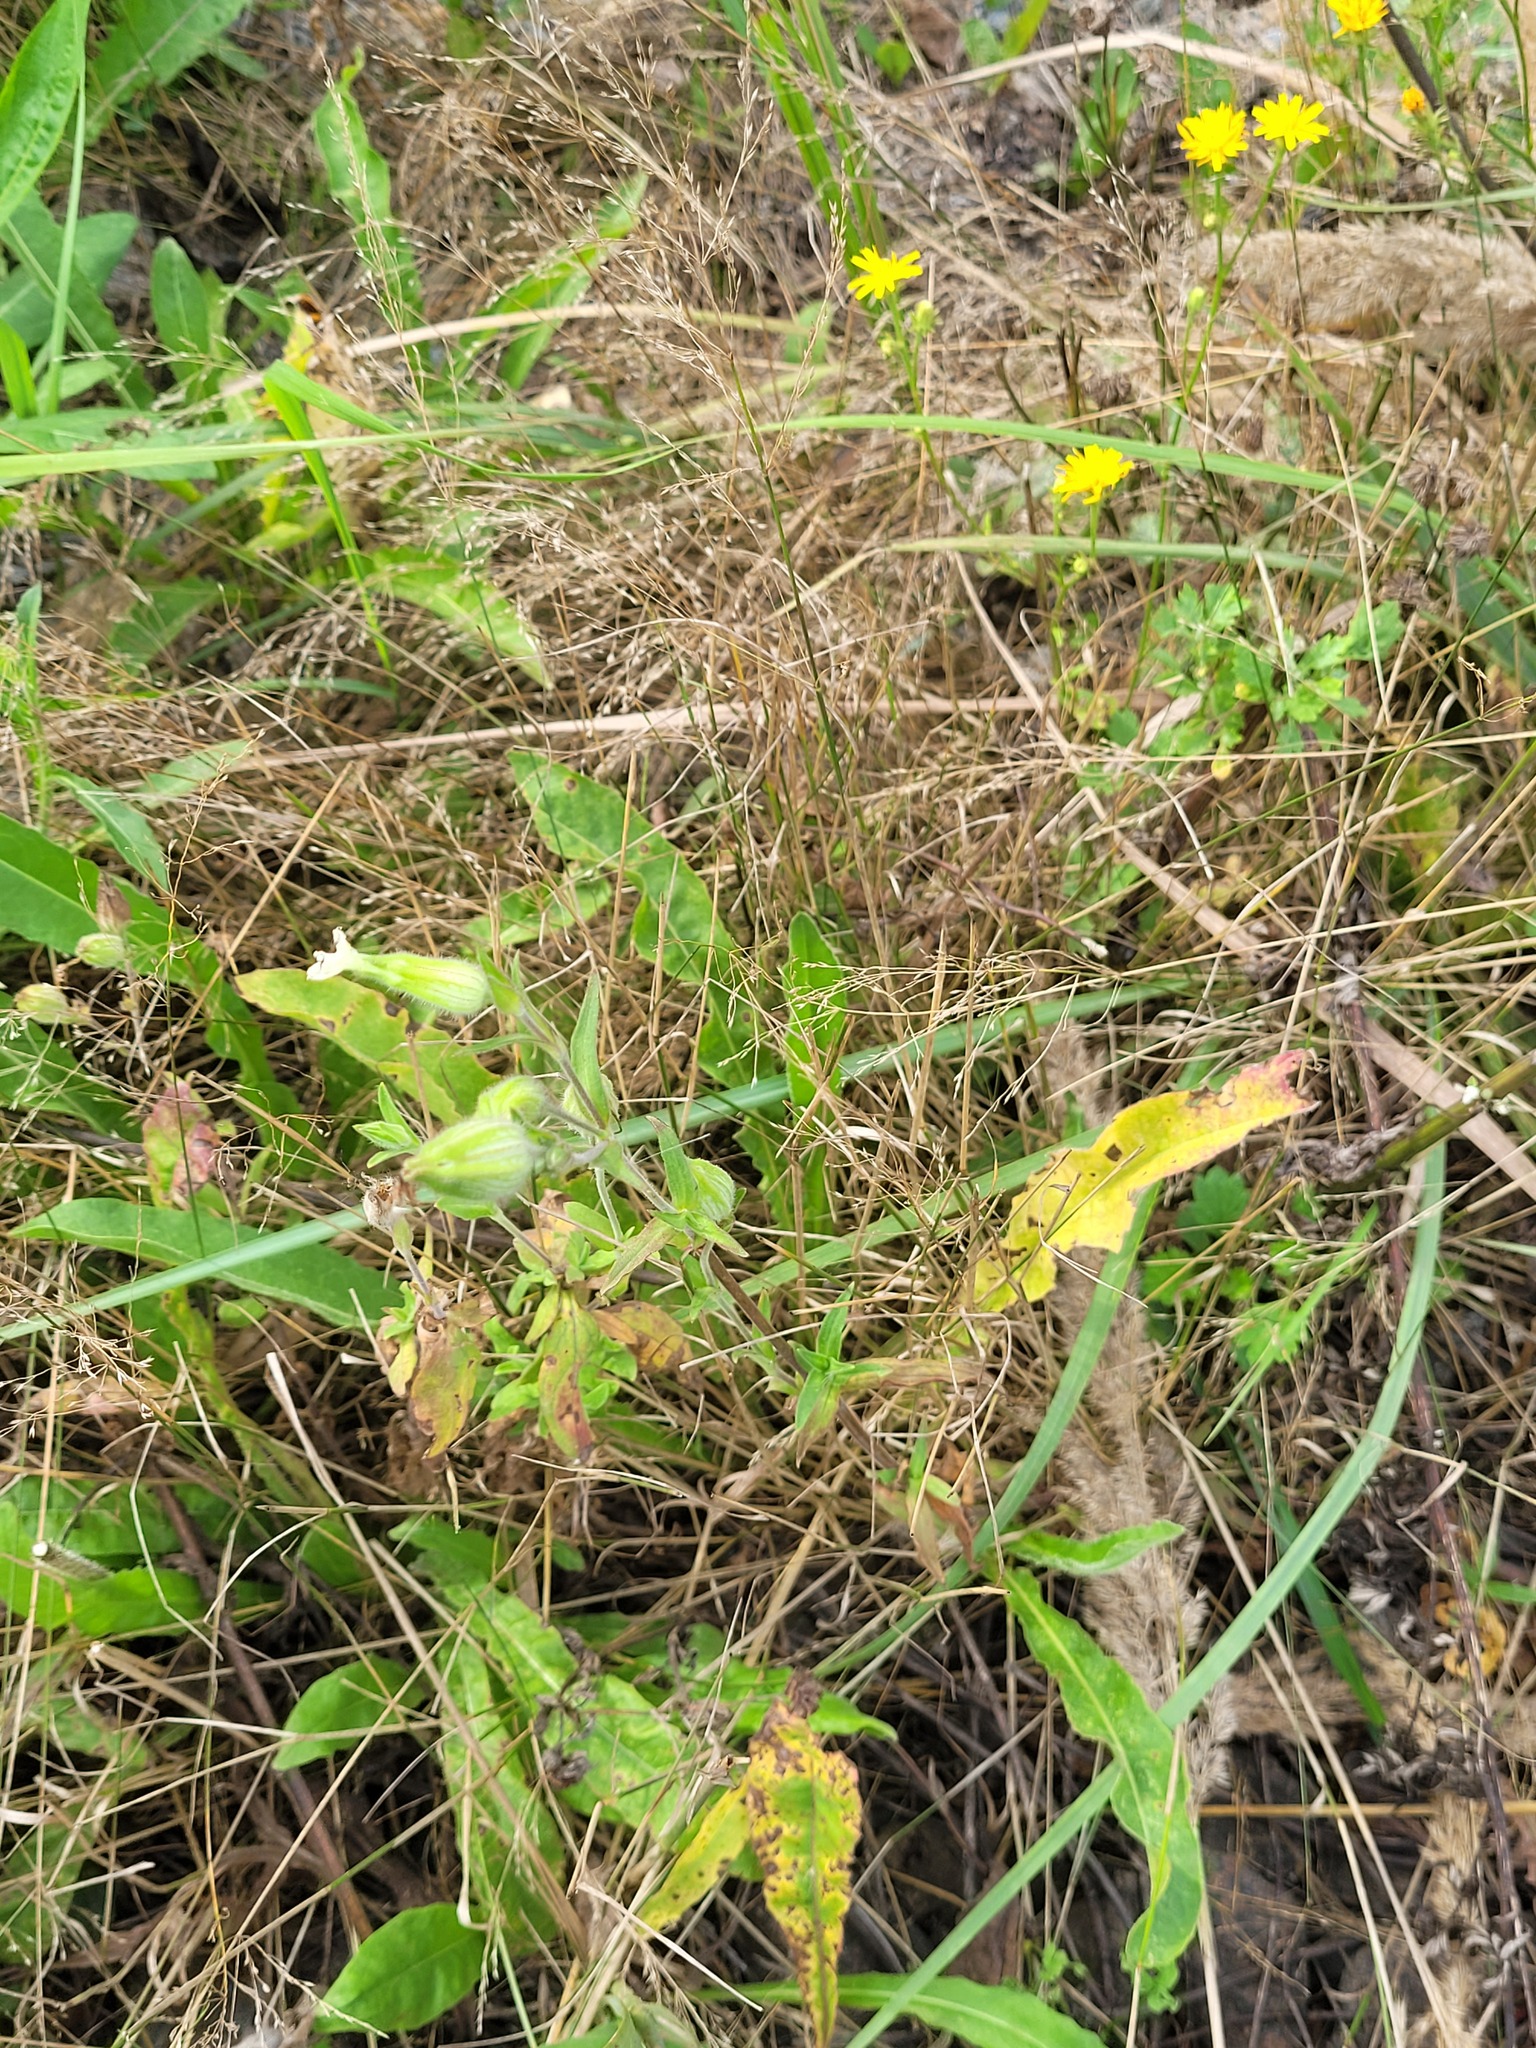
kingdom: Plantae
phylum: Tracheophyta
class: Magnoliopsida
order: Caryophyllales
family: Caryophyllaceae
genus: Silene
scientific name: Silene latifolia
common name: White campion
